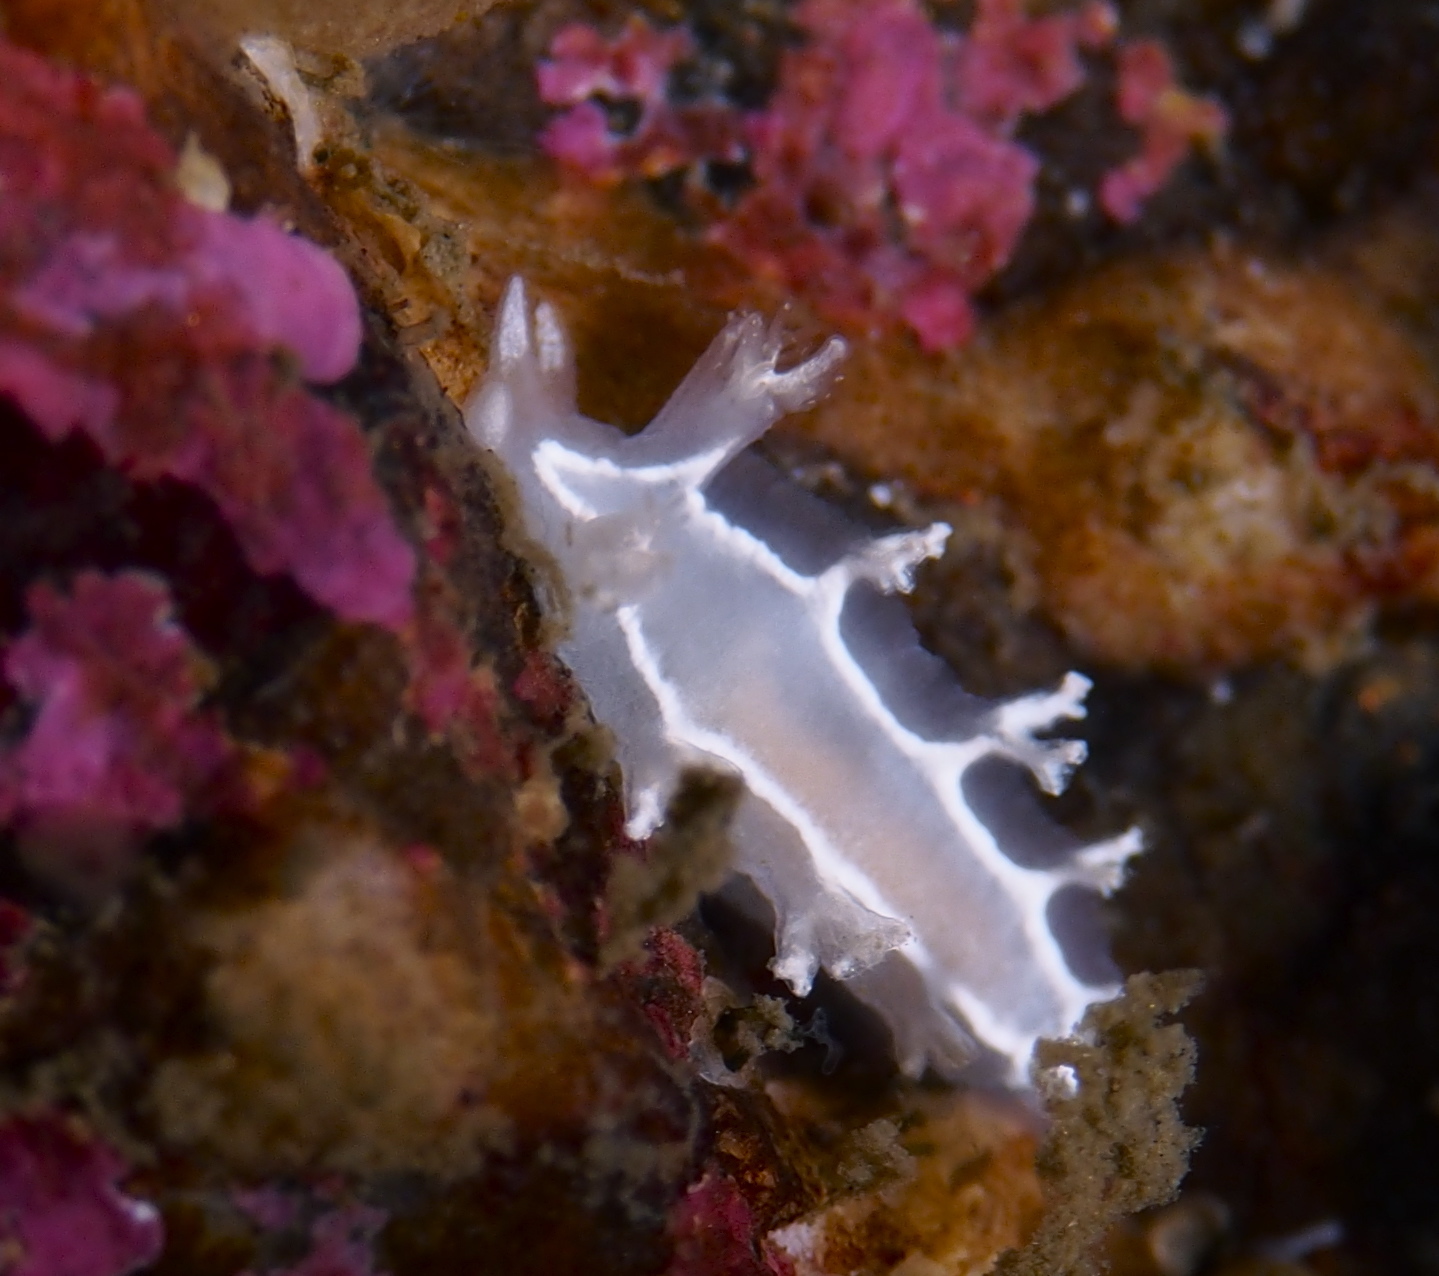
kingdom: Animalia
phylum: Mollusca
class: Gastropoda
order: Nudibranchia
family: Tritoniidae
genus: Duvaucelia
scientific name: Duvaucelia lineata
